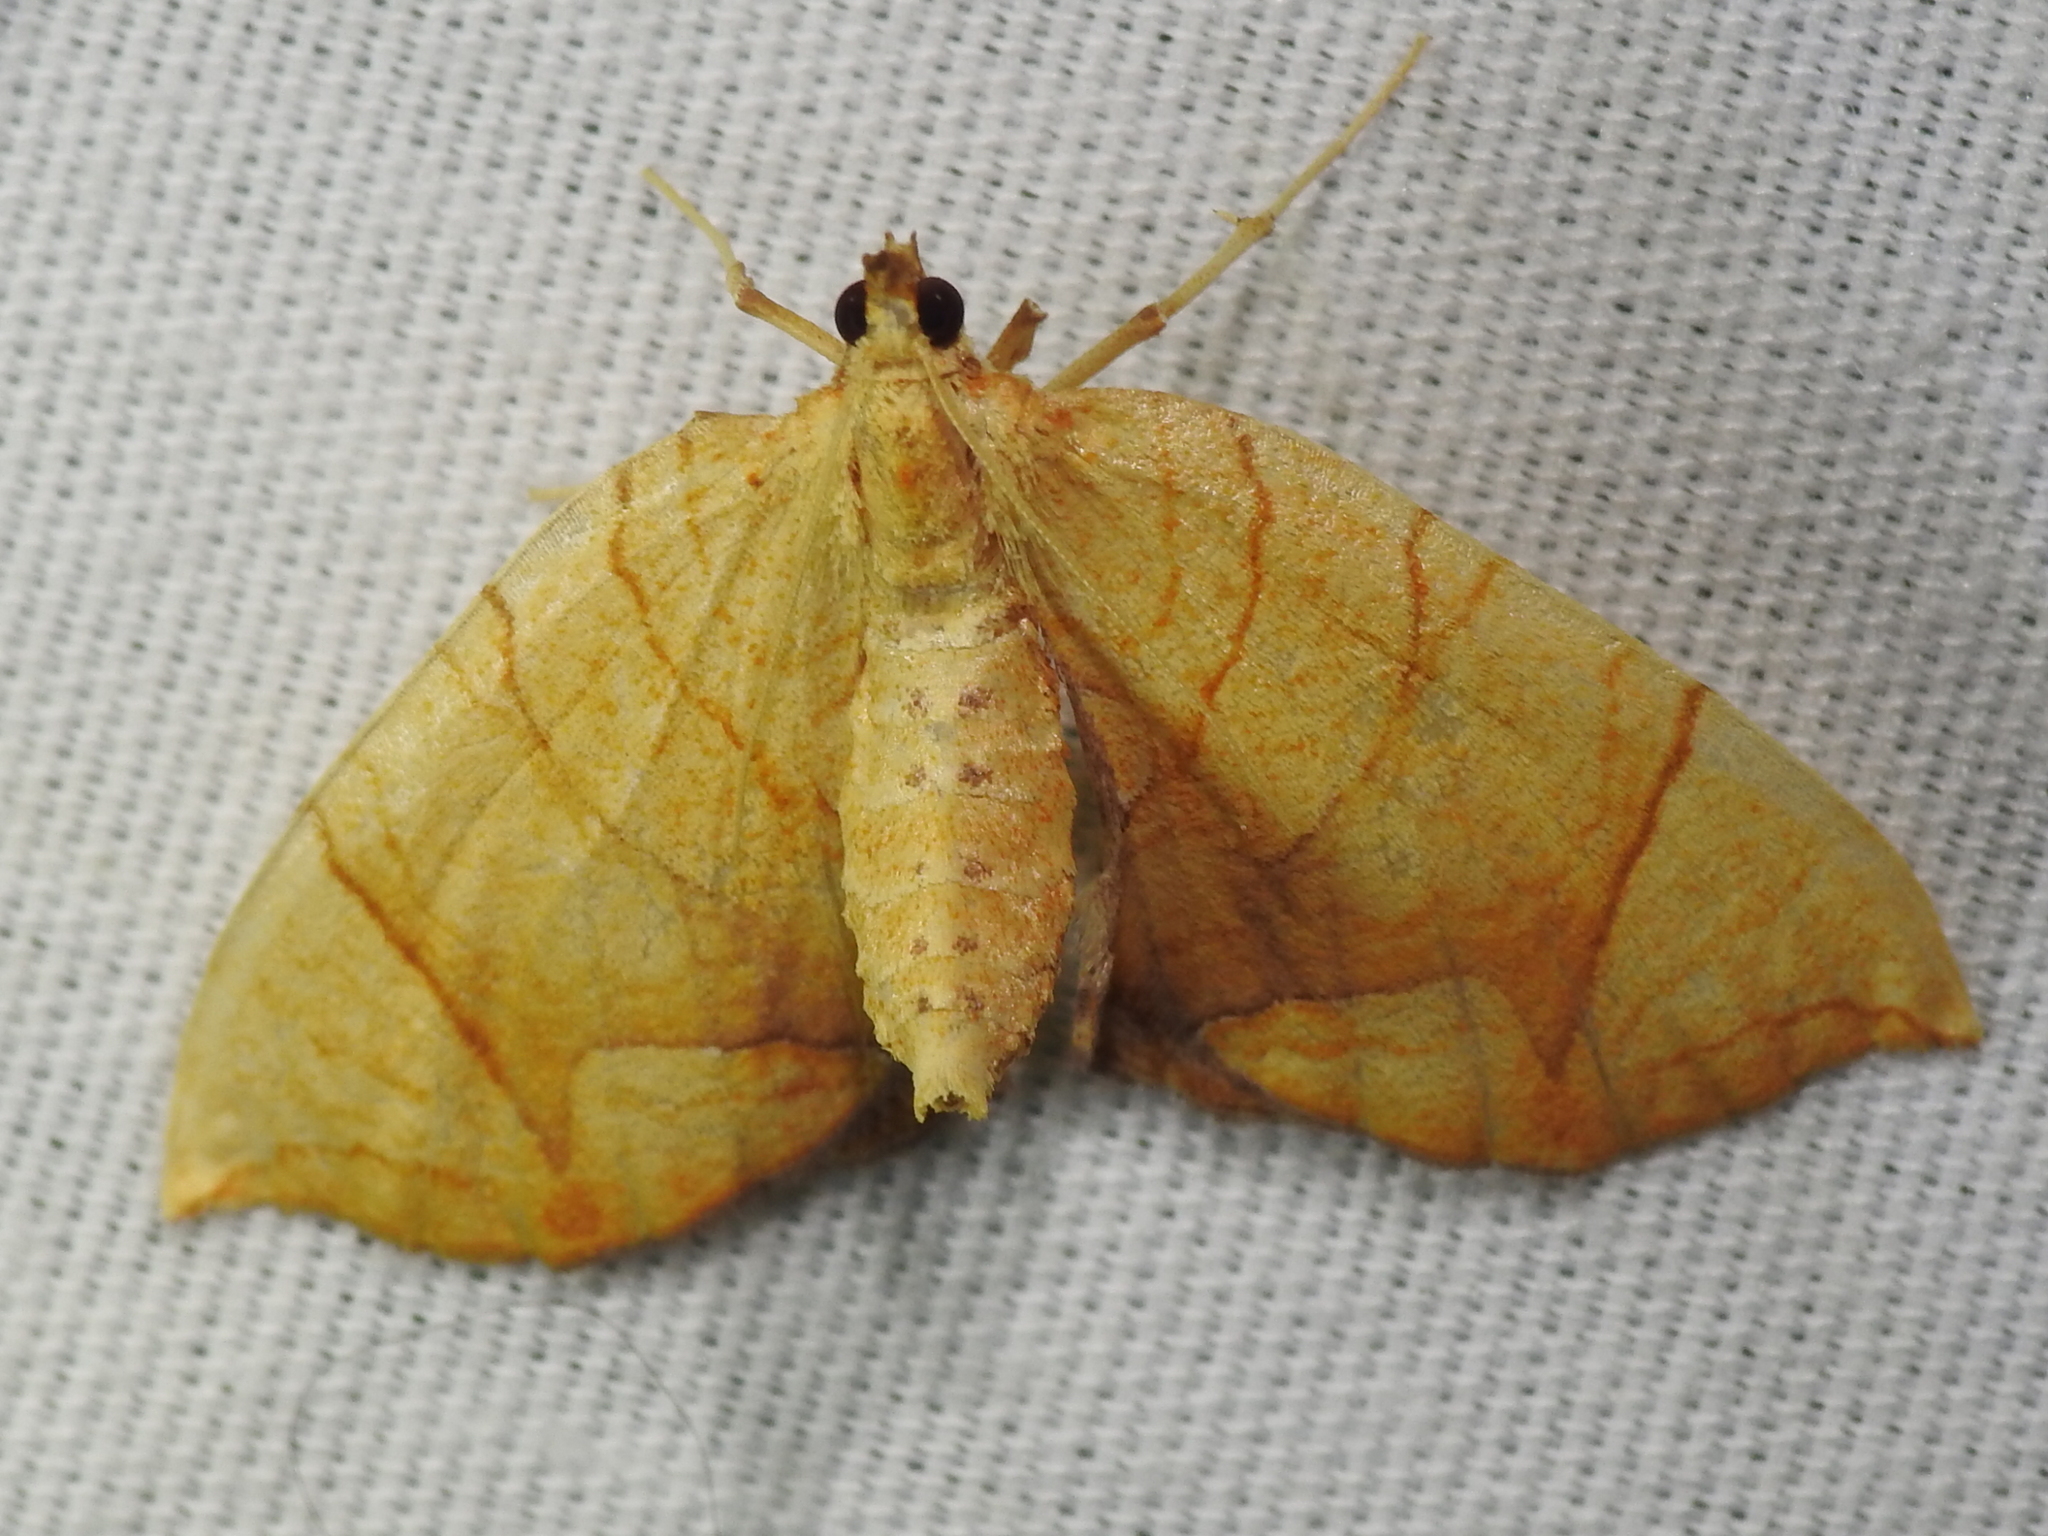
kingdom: Animalia
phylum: Arthropoda
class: Insecta
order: Lepidoptera
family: Geometridae
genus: Eulithis
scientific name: Eulithis
